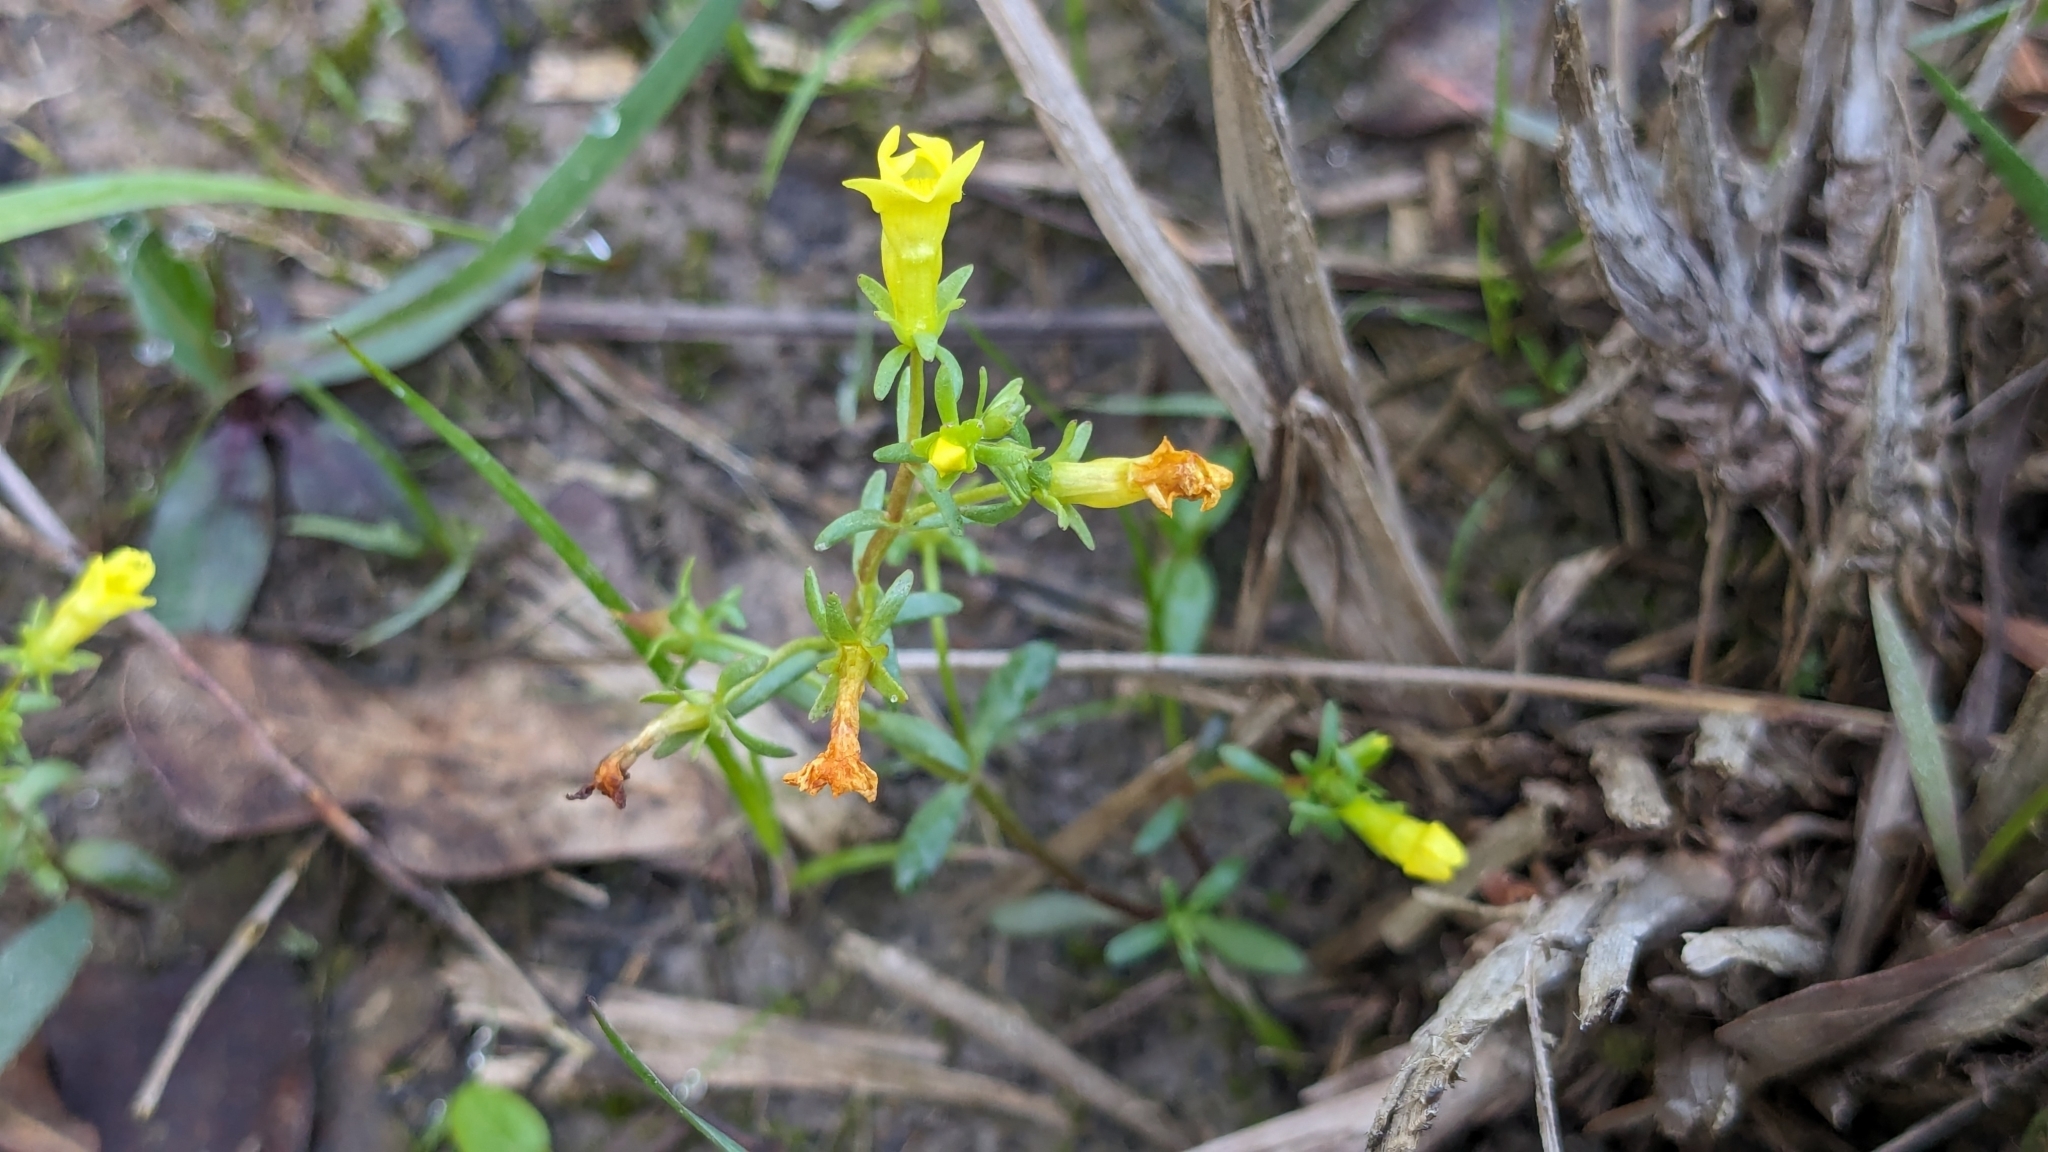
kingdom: Plantae
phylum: Tracheophyta
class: Magnoliopsida
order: Lamiales
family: Plantaginaceae
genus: Gratiola
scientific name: Gratiola flava
